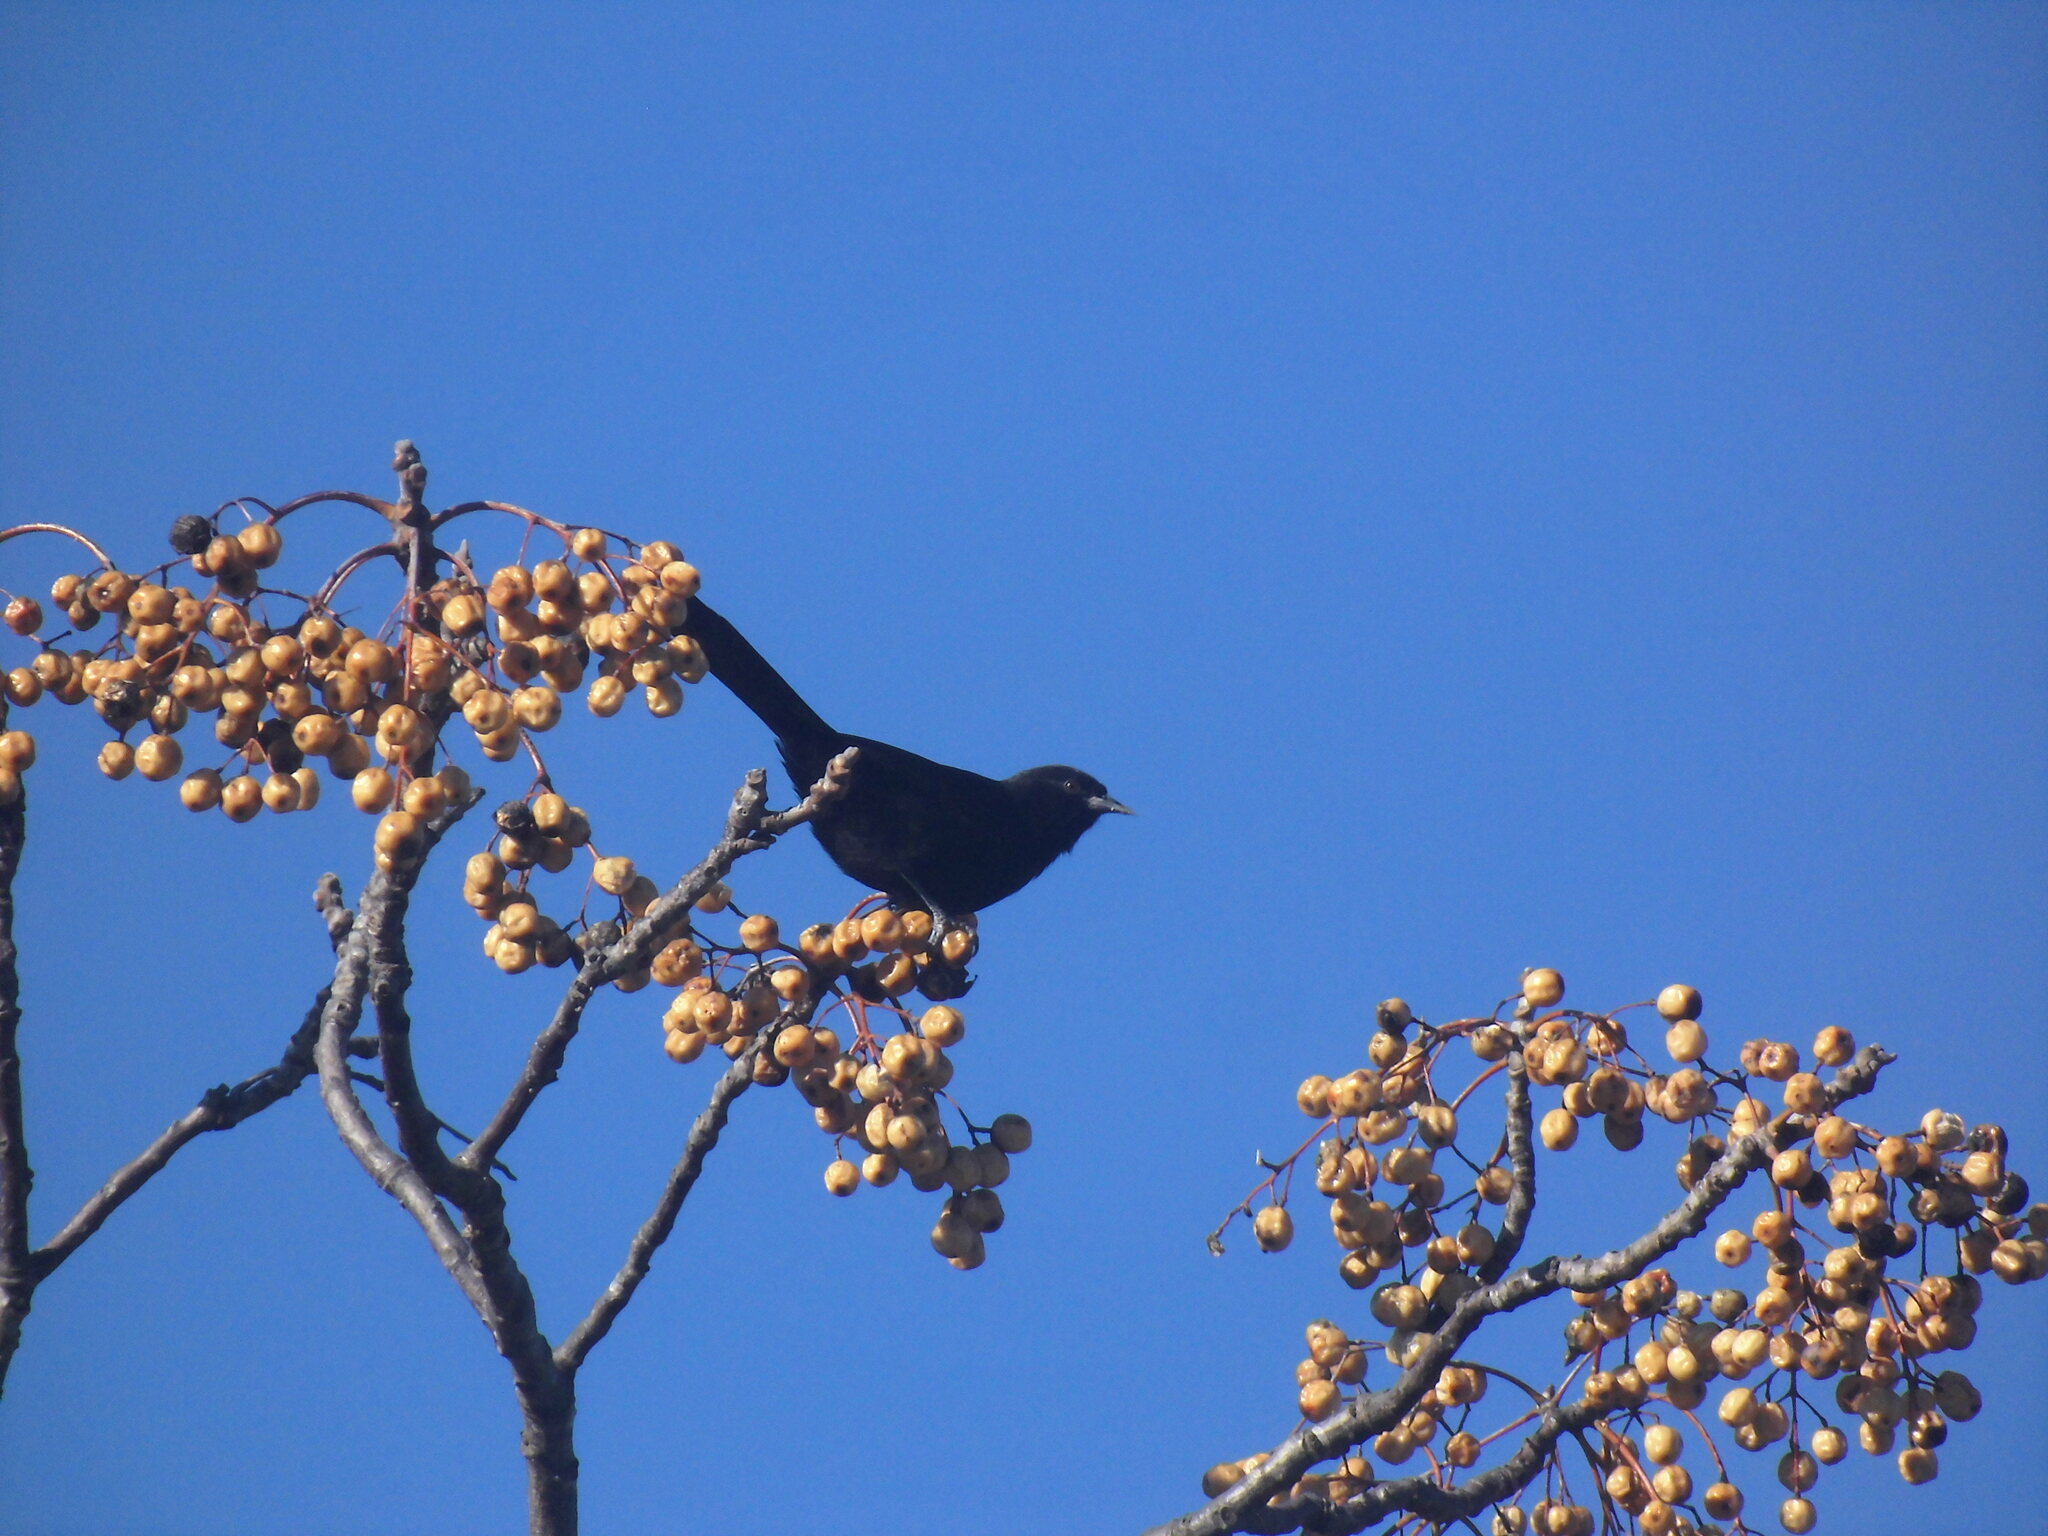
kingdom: Animalia
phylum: Chordata
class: Aves
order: Passeriformes
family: Icteridae
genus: Icterus
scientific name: Icterus cayanensis
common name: Epaulet oriole
